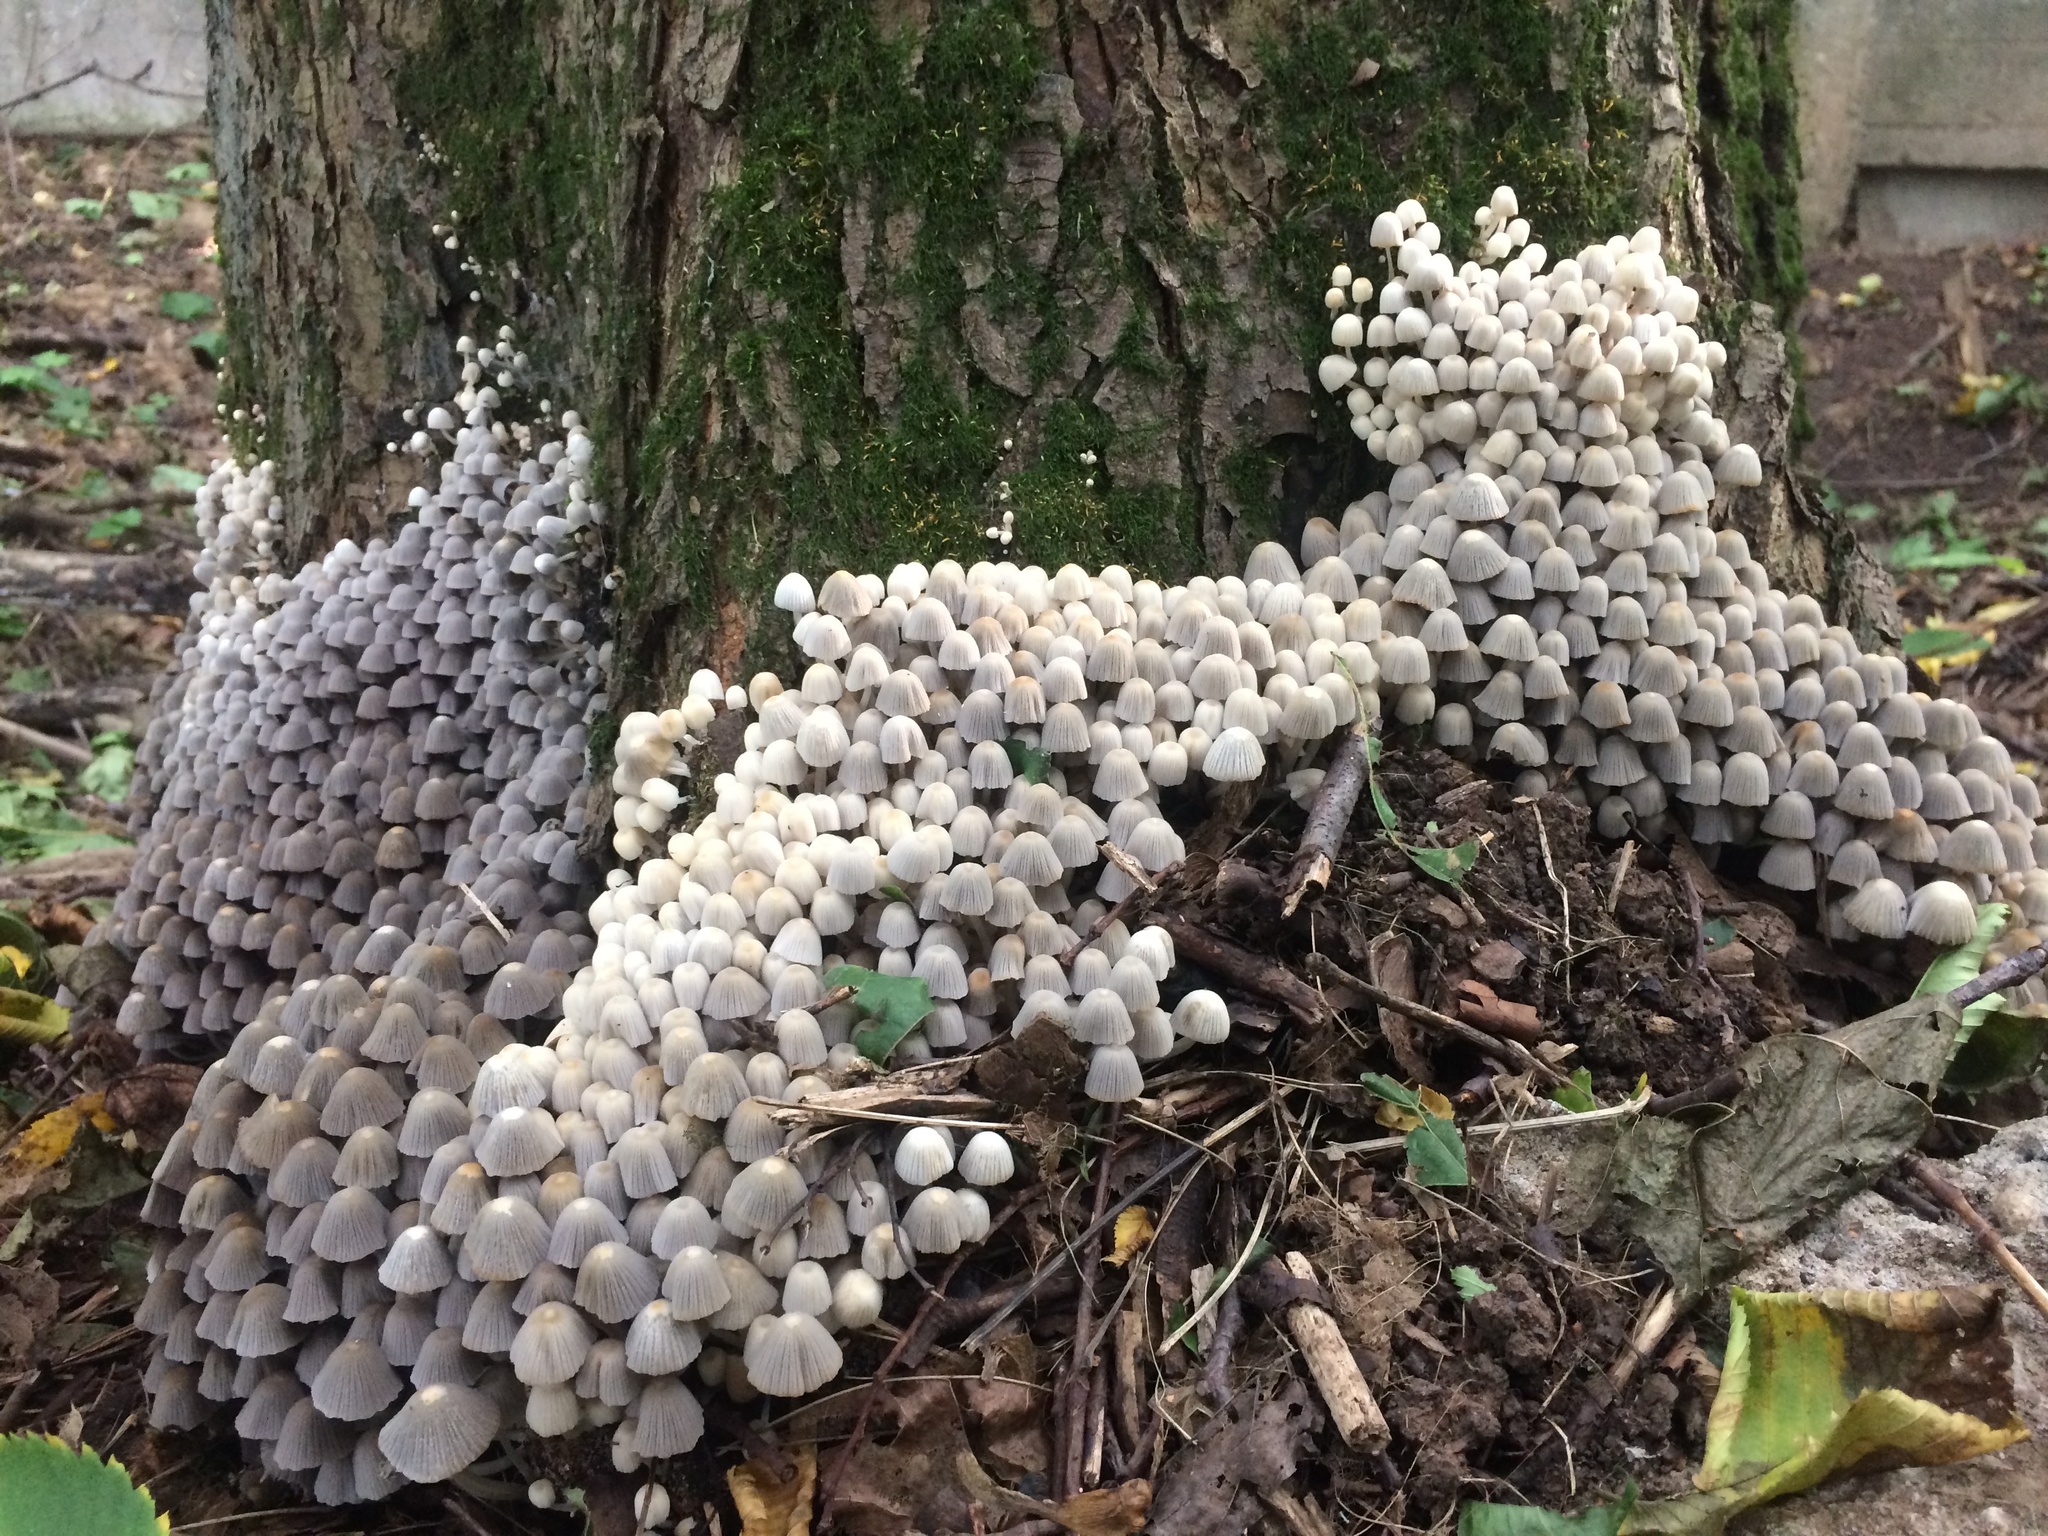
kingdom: Fungi
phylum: Basidiomycota
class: Agaricomycetes
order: Agaricales
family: Psathyrellaceae
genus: Coprinellus
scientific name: Coprinellus disseminatus
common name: Fairies' bonnets
